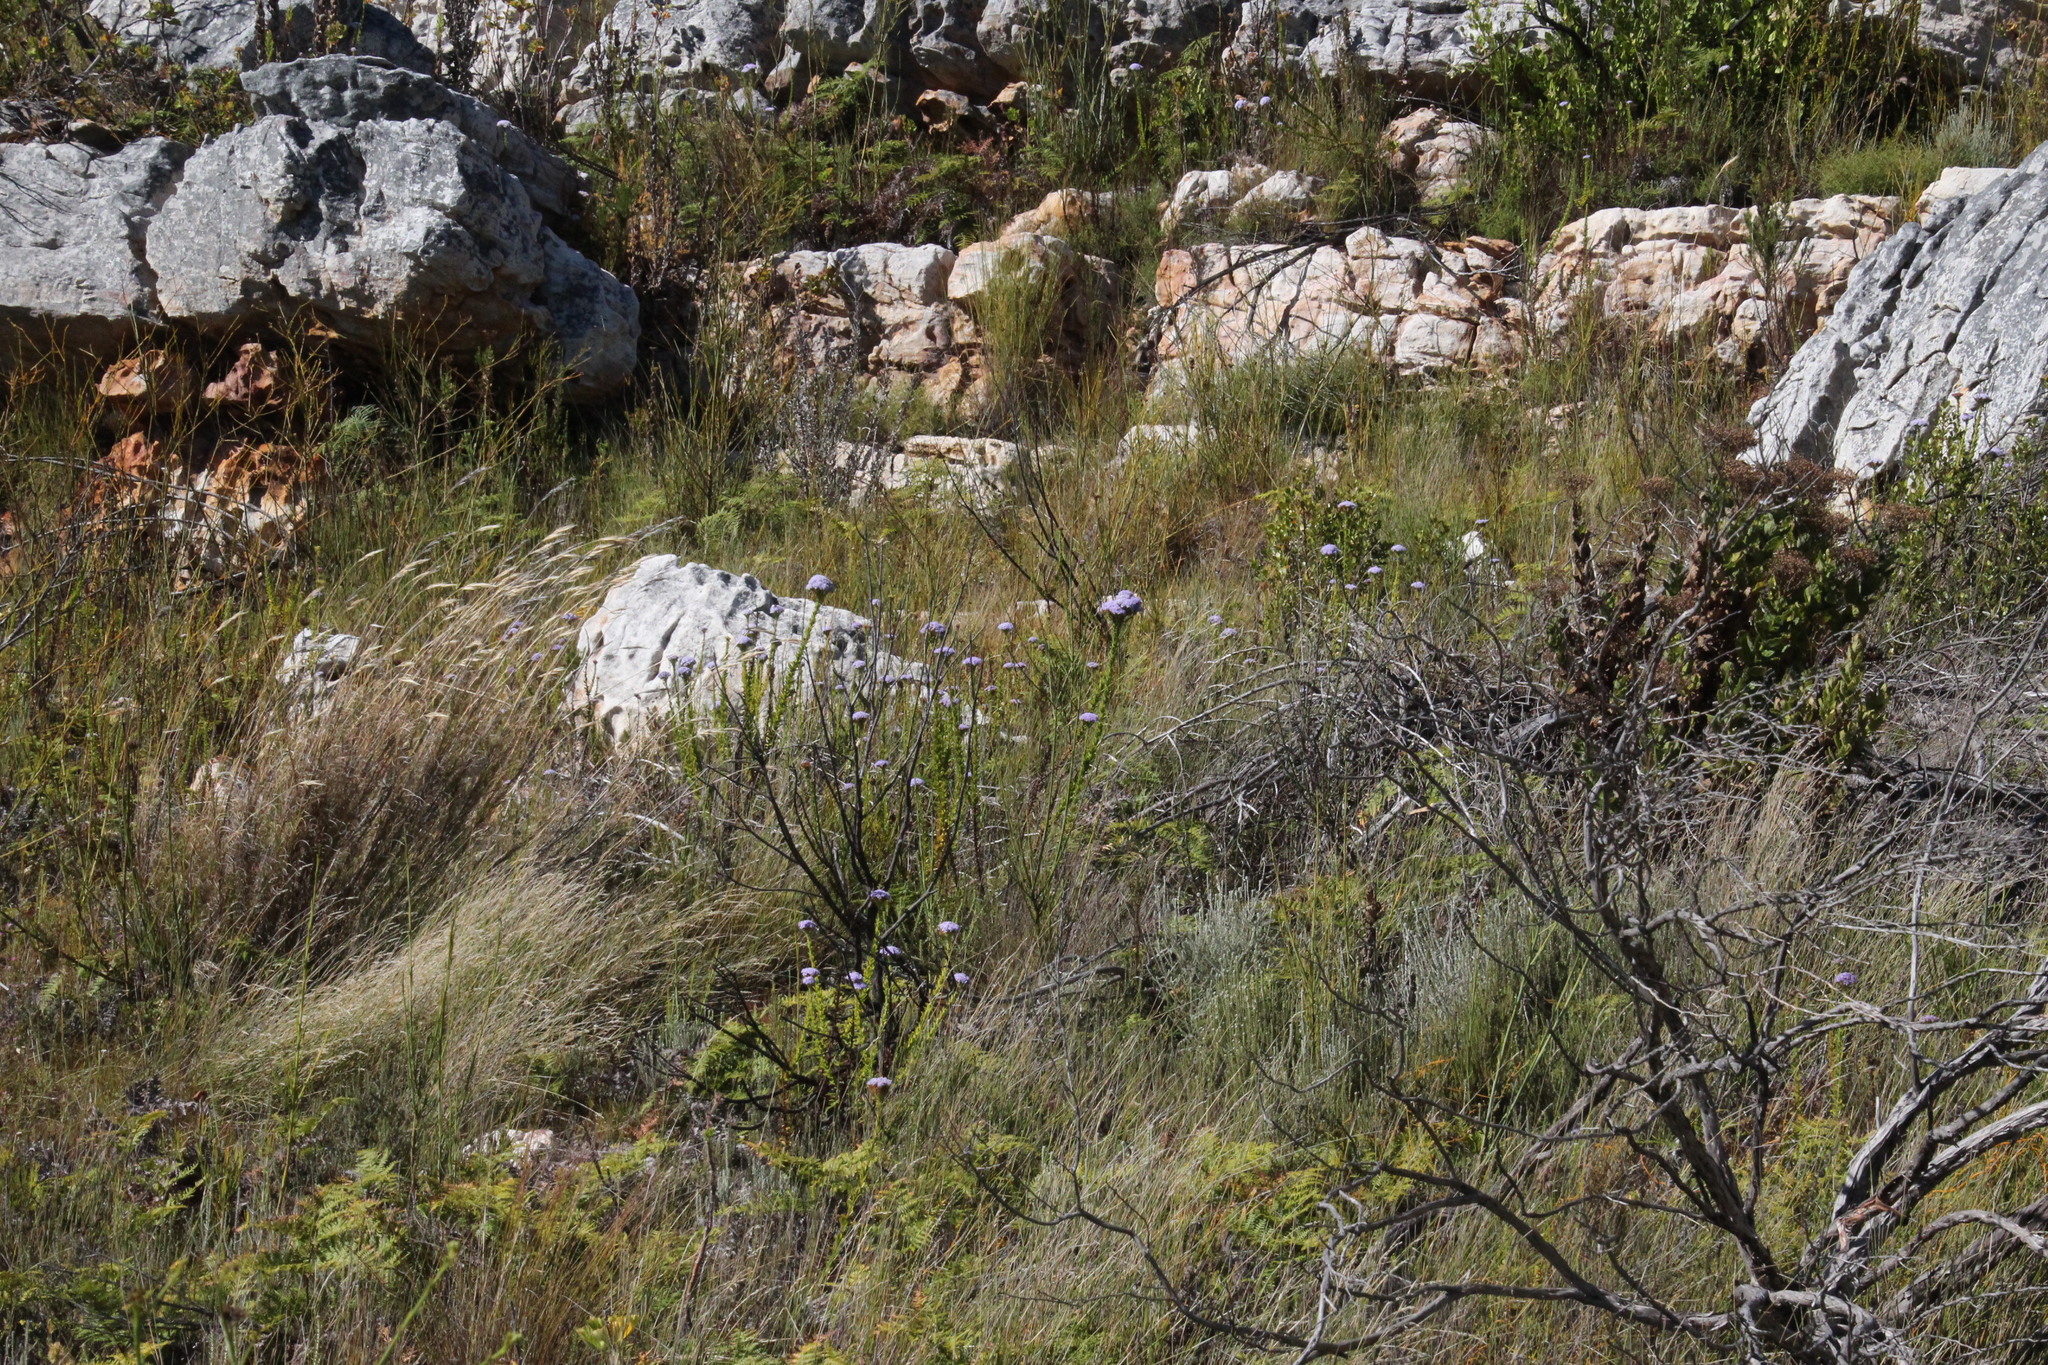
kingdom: Plantae
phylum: Tracheophyta
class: Magnoliopsida
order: Santalales
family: Thesiaceae
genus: Thesium
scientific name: Thesium strictum
